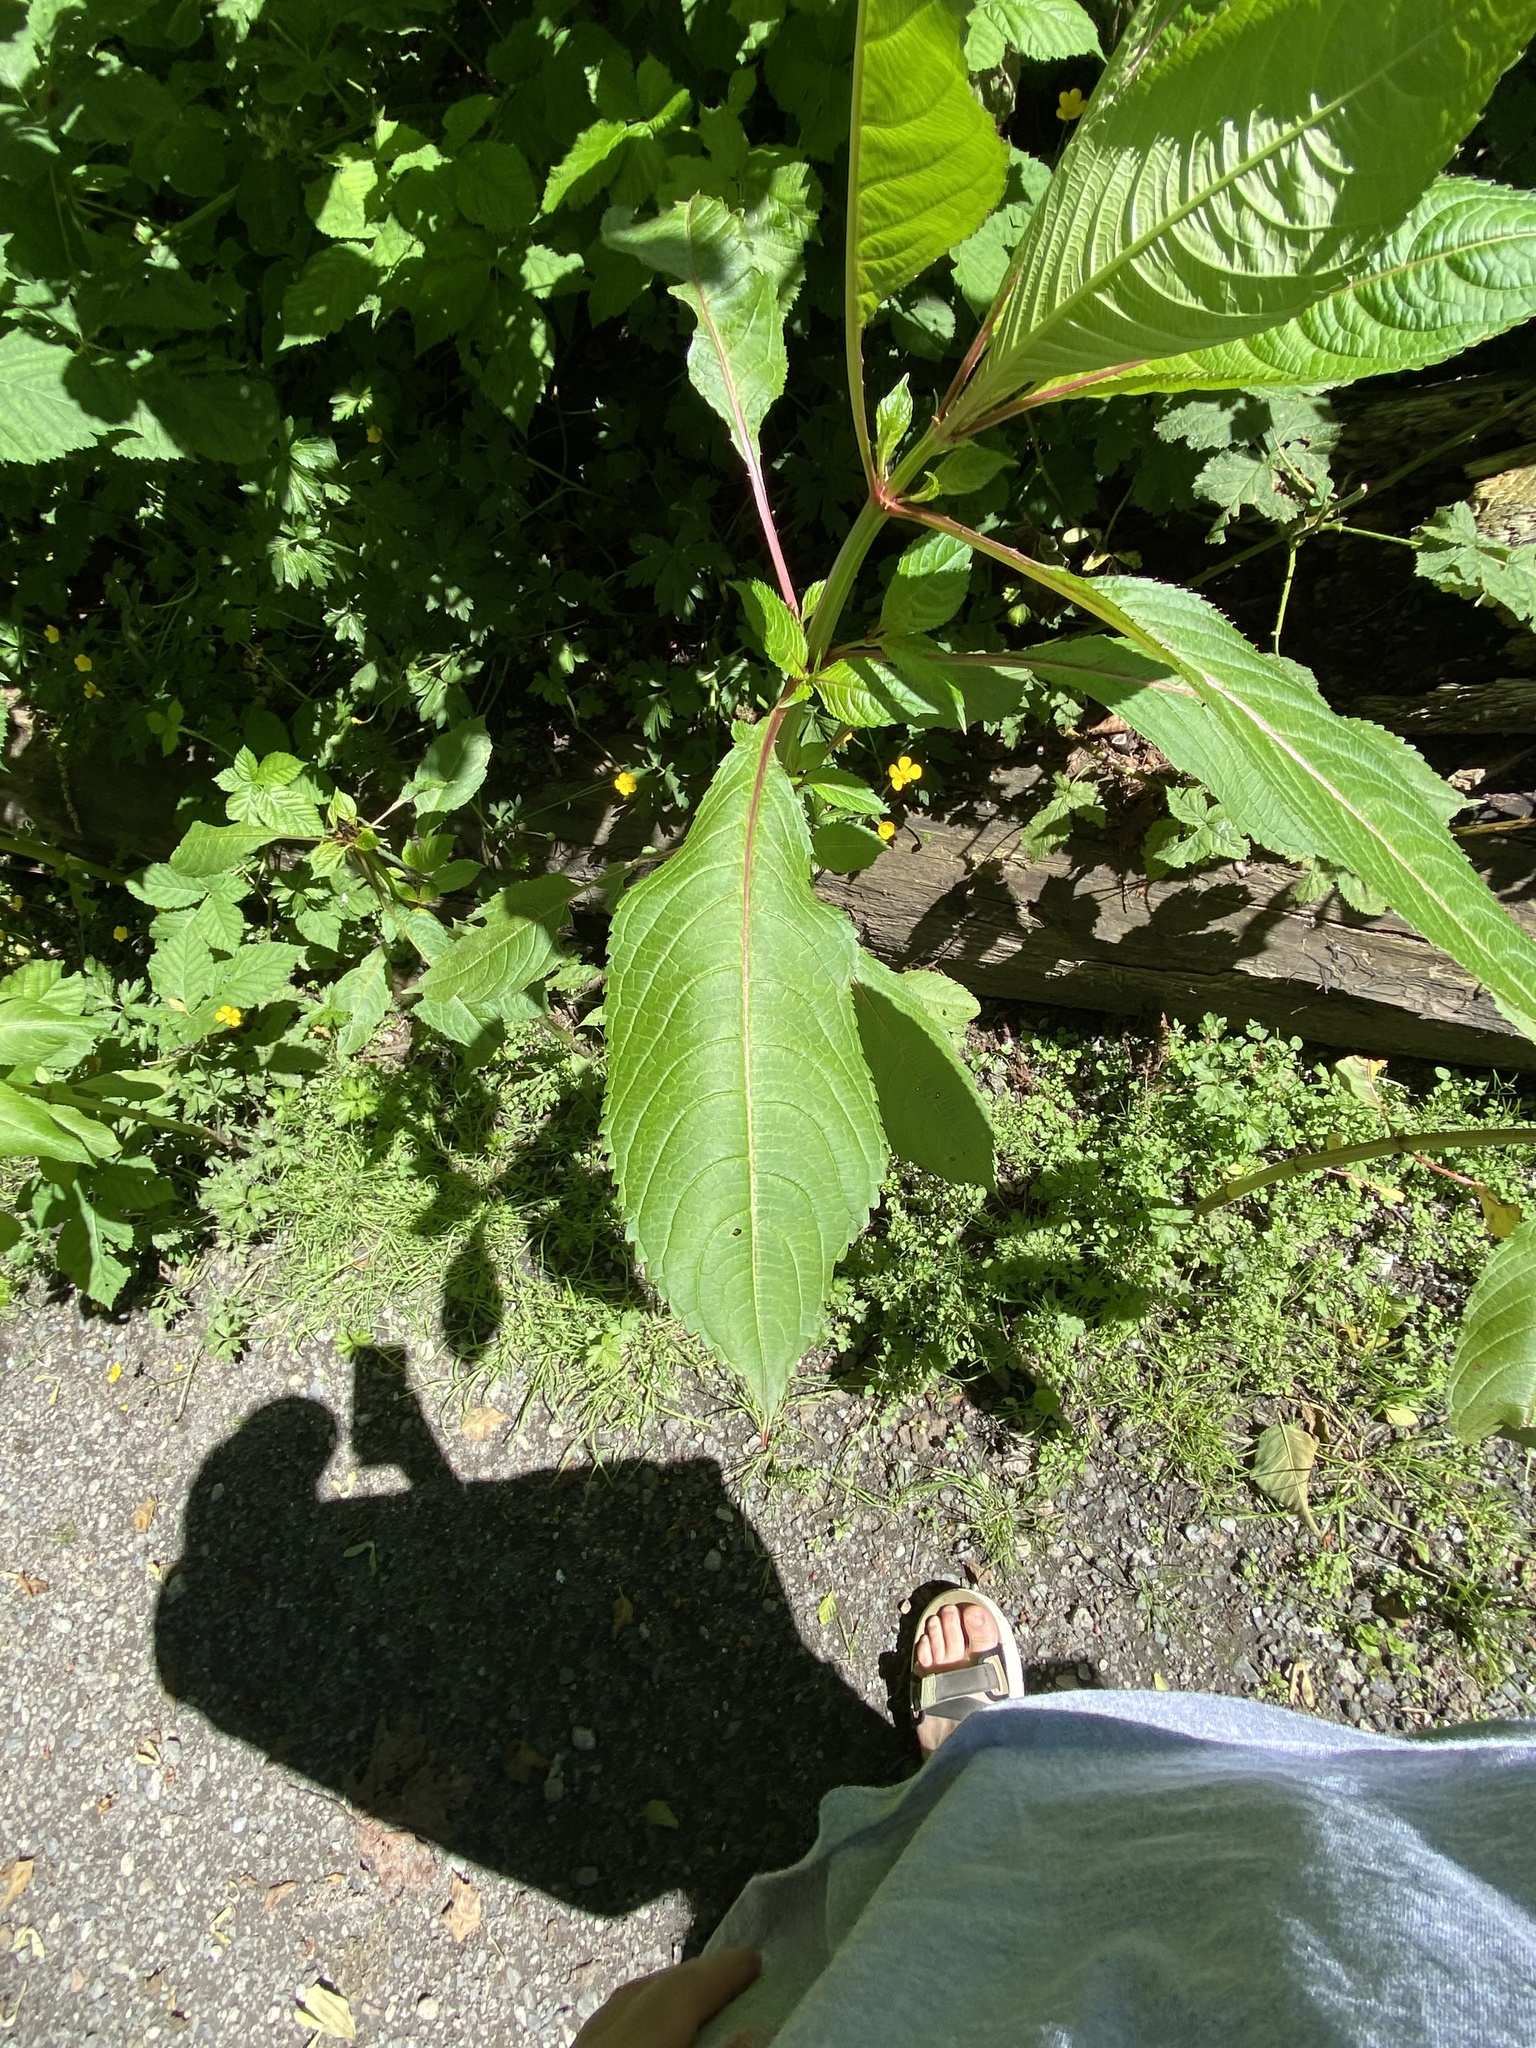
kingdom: Plantae
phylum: Tracheophyta
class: Magnoliopsida
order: Ericales
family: Balsaminaceae
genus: Impatiens
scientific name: Impatiens glandulifera
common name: Himalayan balsam
